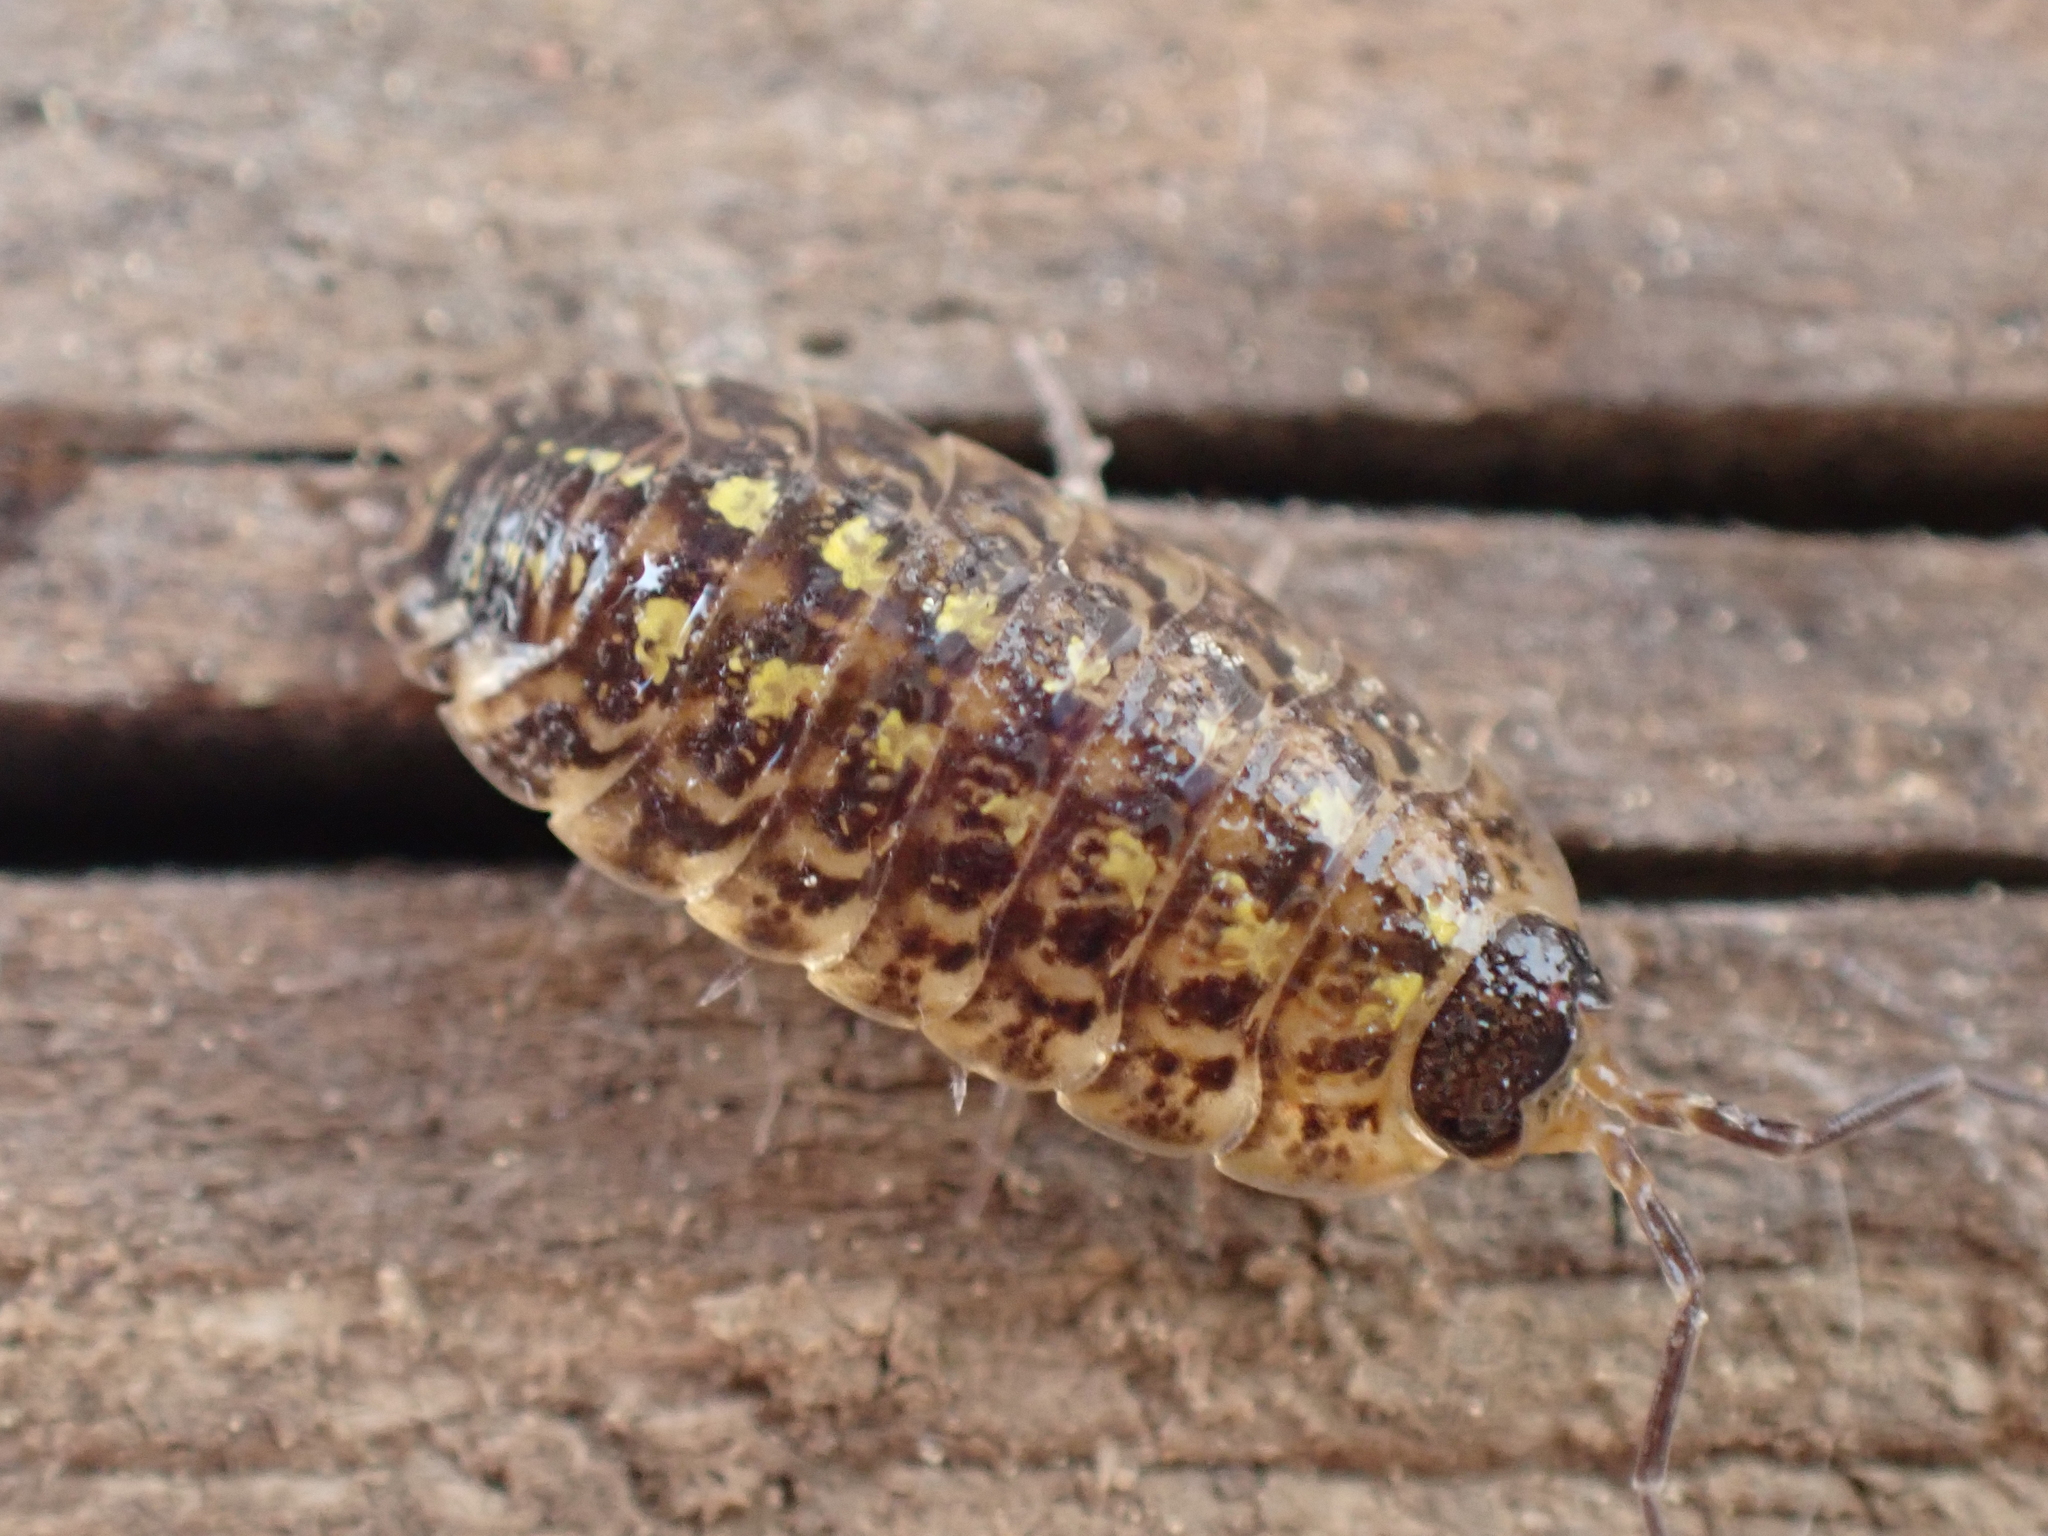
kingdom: Animalia
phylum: Arthropoda
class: Malacostraca
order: Isopoda
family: Porcellionidae
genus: Porcellio
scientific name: Porcellio spinicornis
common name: Painted woodlouse
